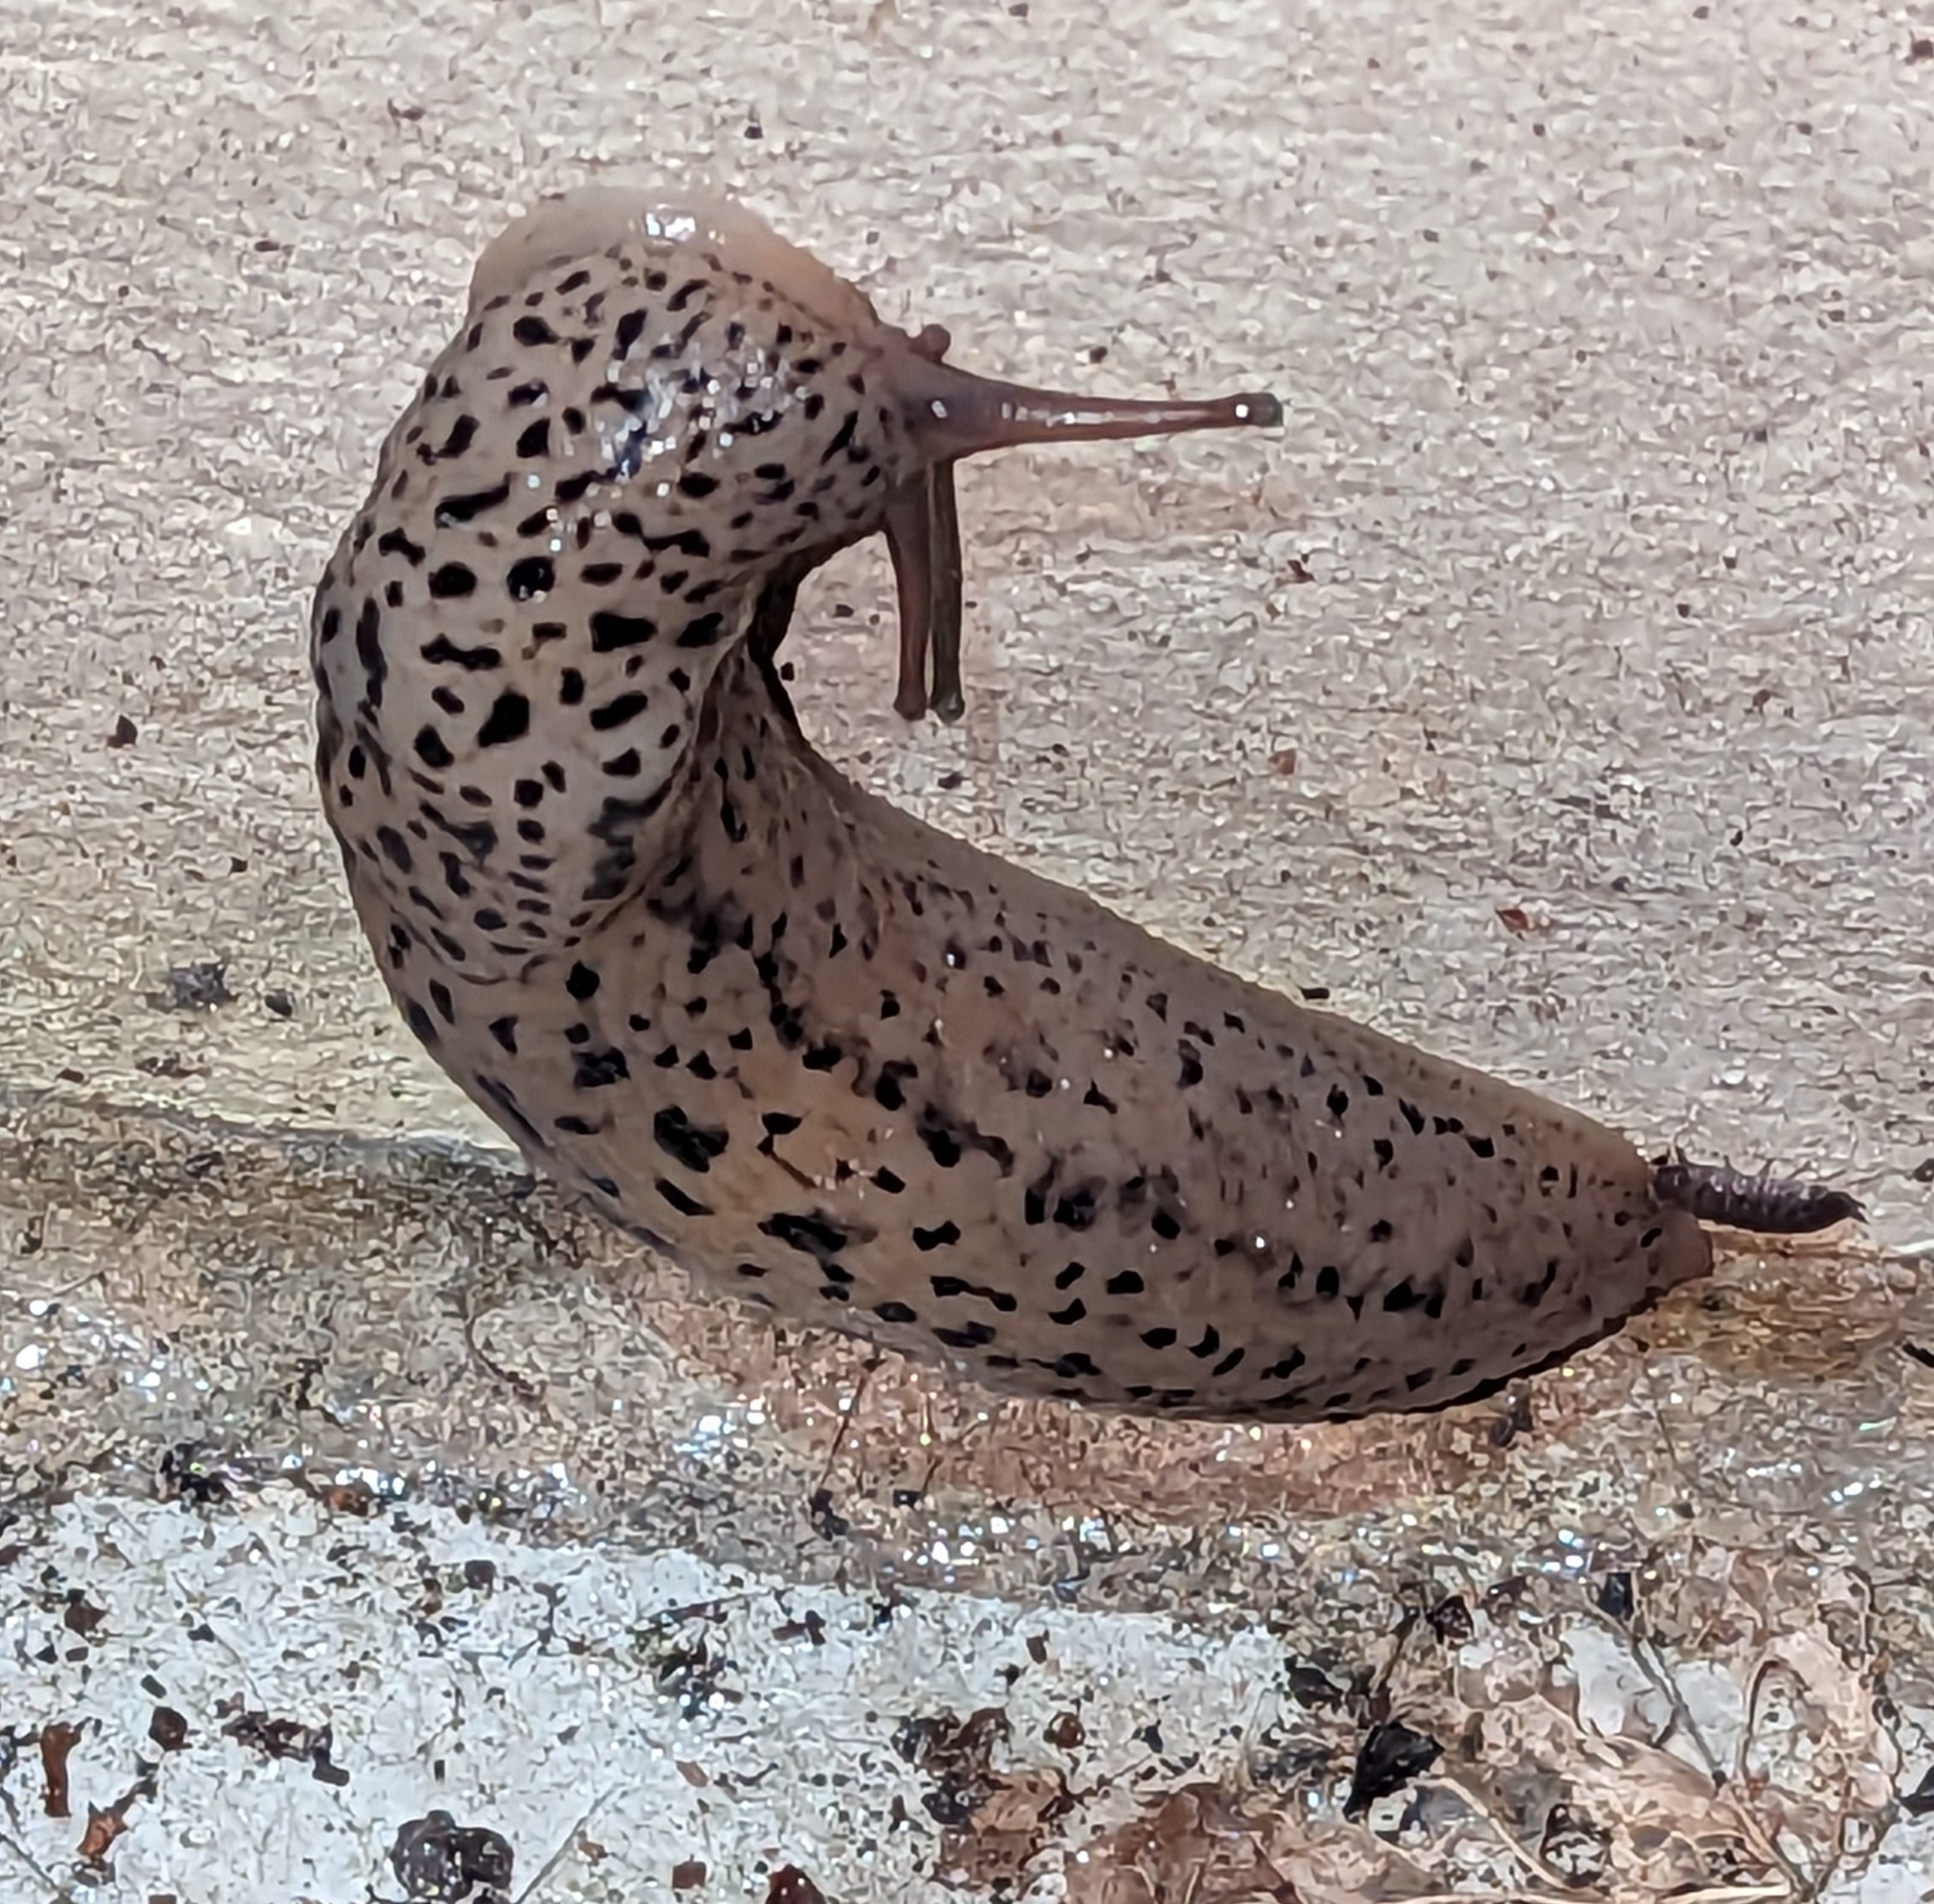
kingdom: Animalia
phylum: Mollusca
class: Gastropoda
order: Stylommatophora
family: Limacidae
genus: Limax
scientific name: Limax maximus
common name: Great grey slug
